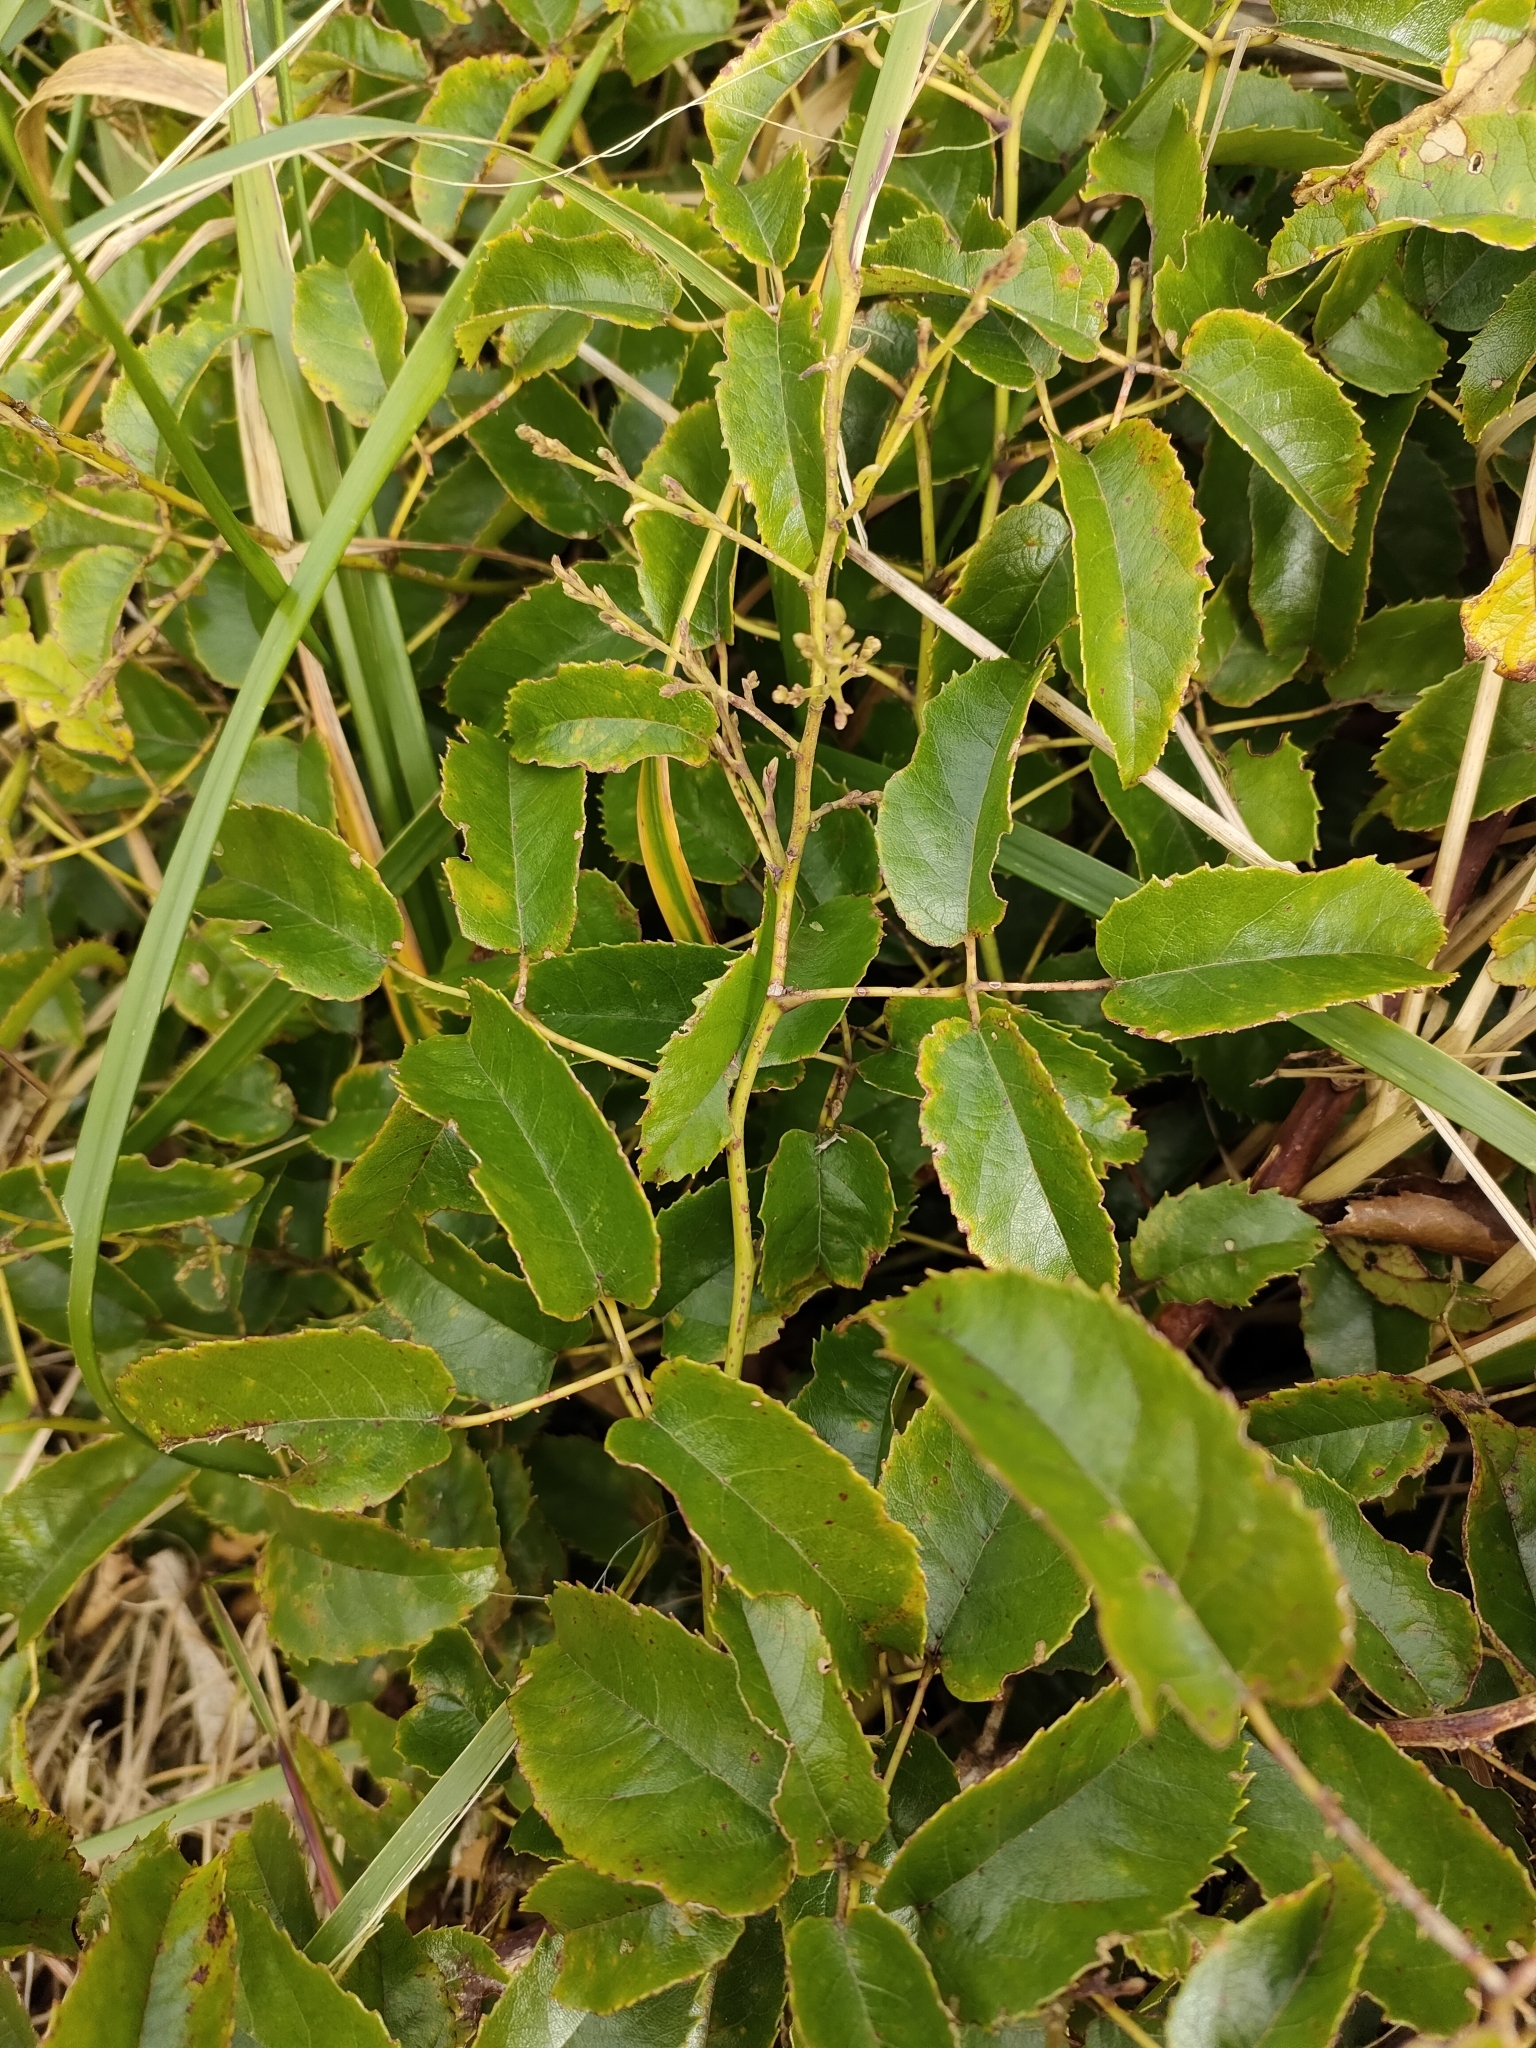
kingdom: Plantae
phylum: Tracheophyta
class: Magnoliopsida
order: Rosales
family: Rosaceae
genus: Rubus
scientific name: Rubus cissoides
